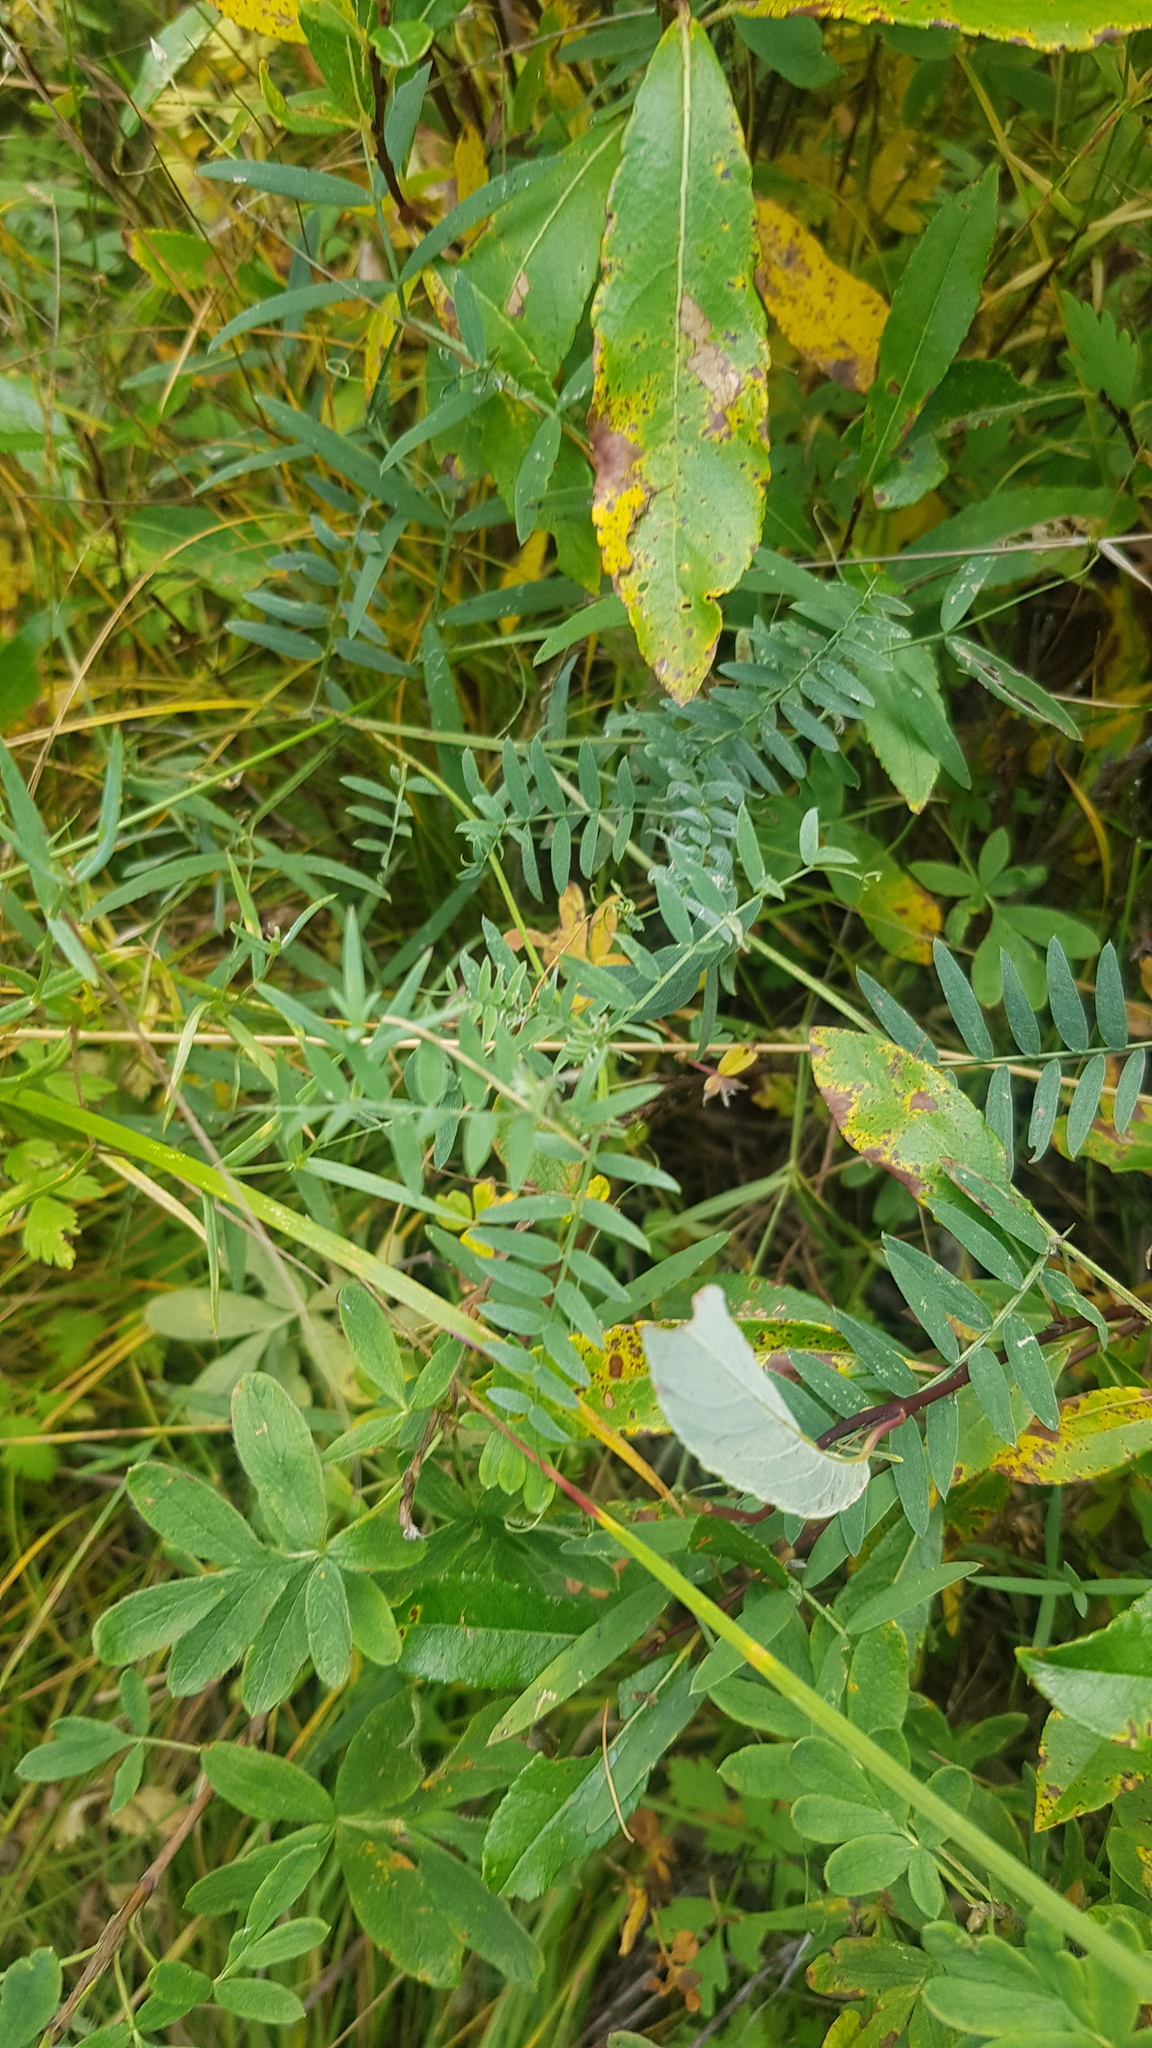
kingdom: Plantae
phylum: Tracheophyta
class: Magnoliopsida
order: Fabales
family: Fabaceae
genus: Vicia
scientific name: Vicia cracca
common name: Bird vetch
